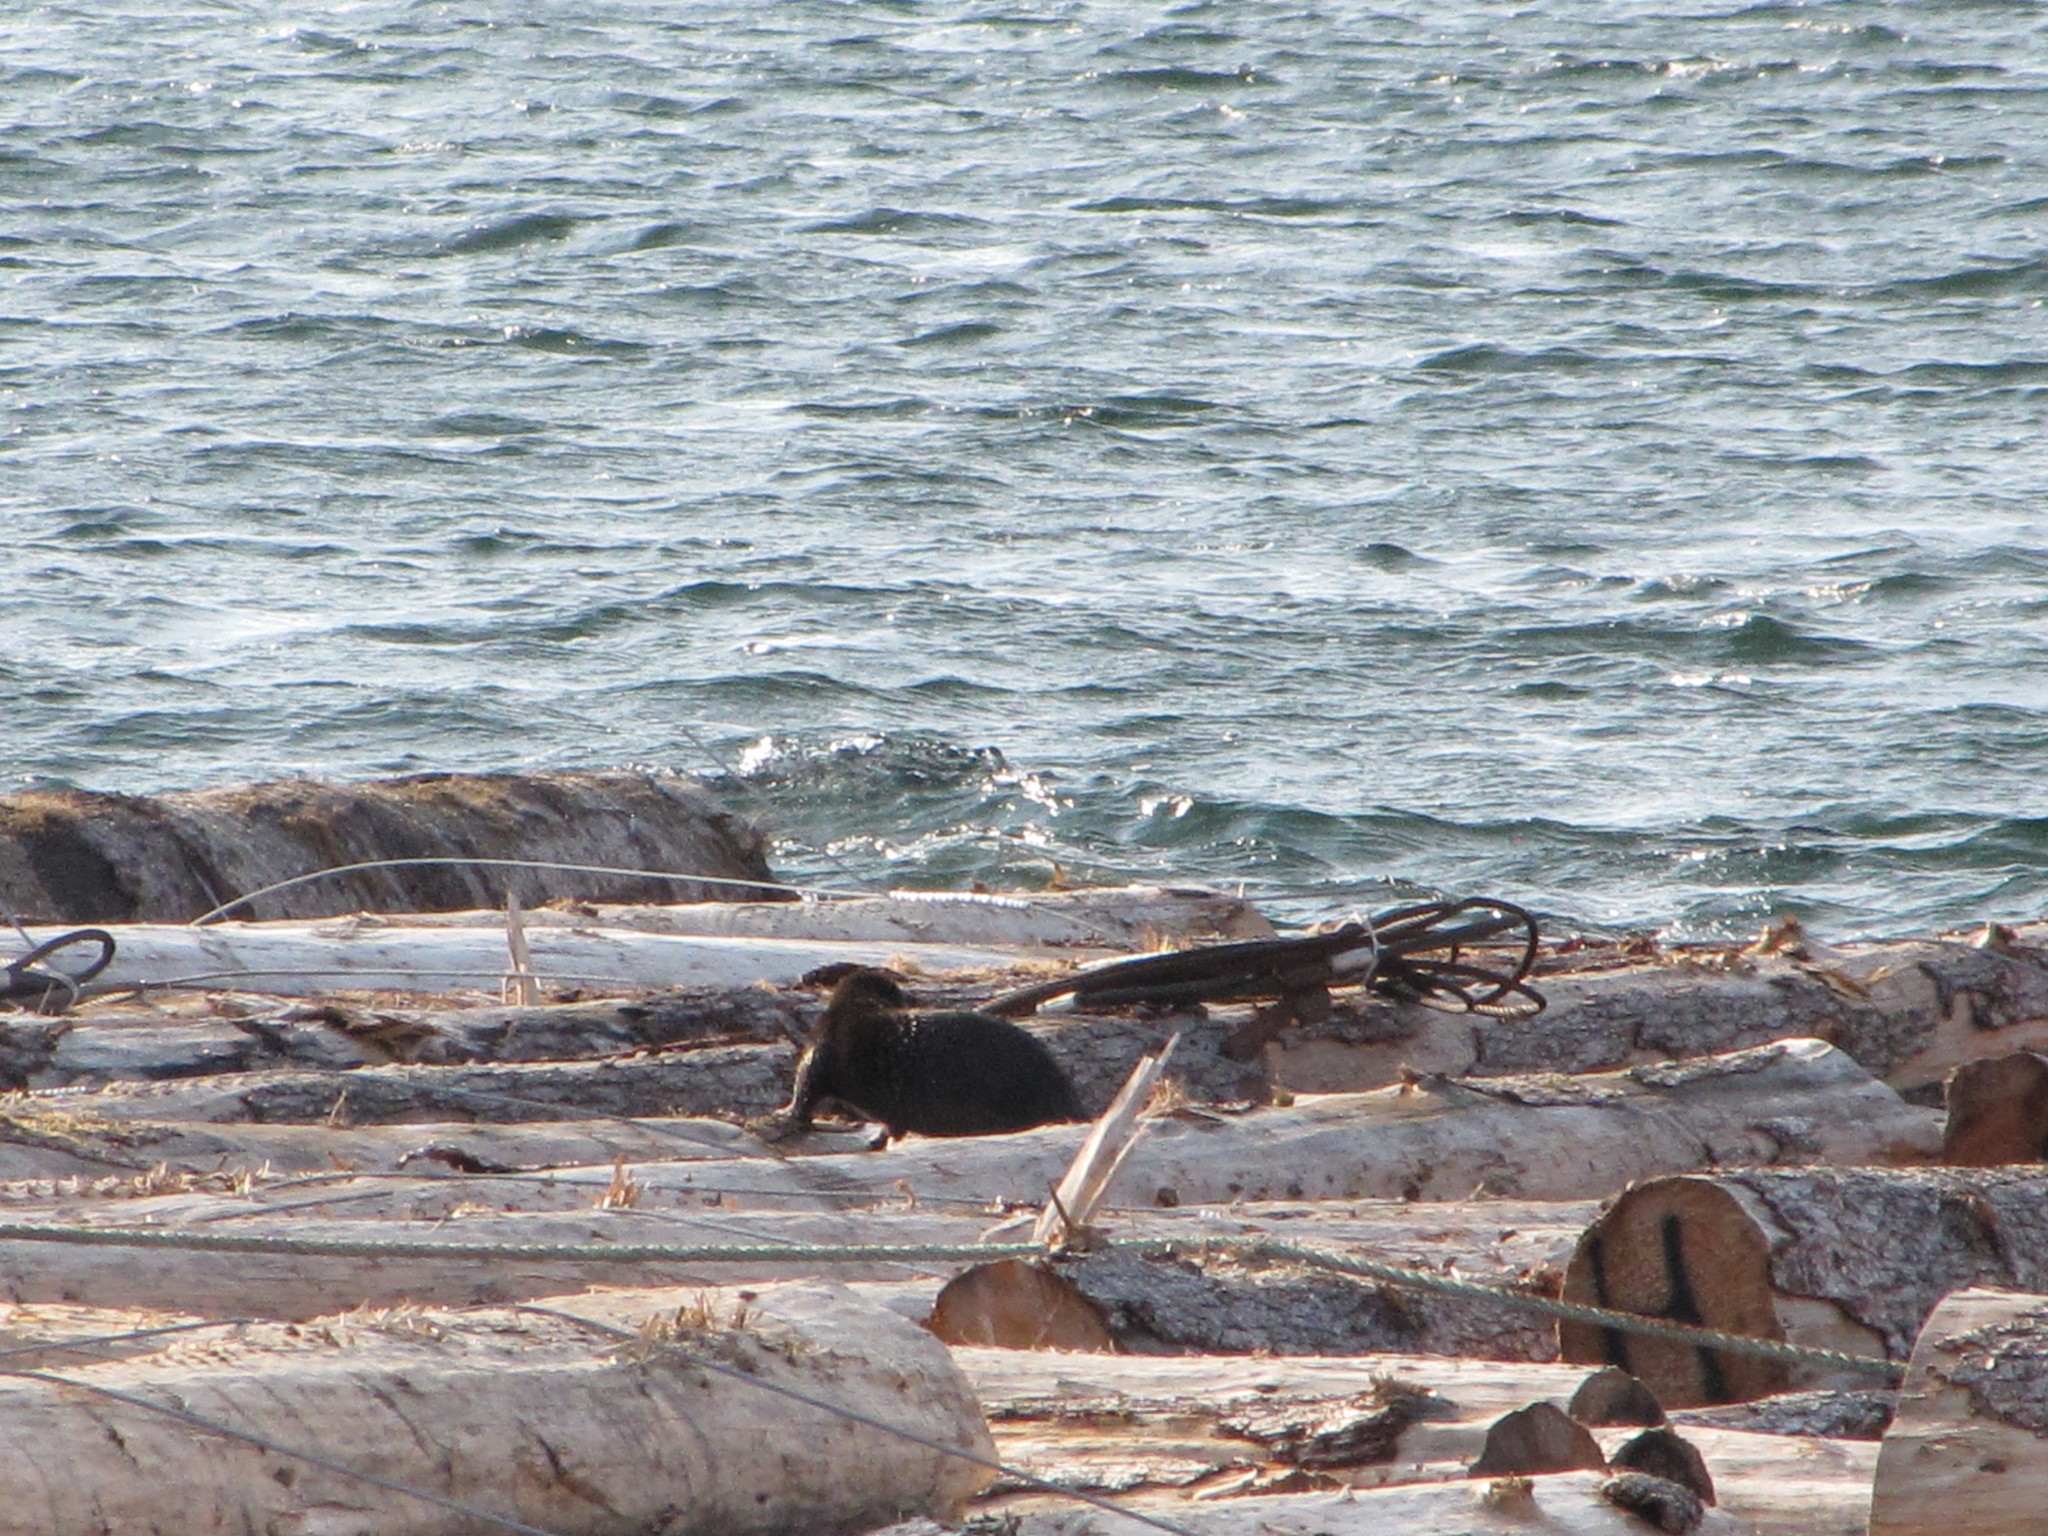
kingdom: Animalia
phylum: Chordata
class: Mammalia
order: Carnivora
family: Mustelidae
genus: Lontra
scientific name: Lontra canadensis
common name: North american river otter
